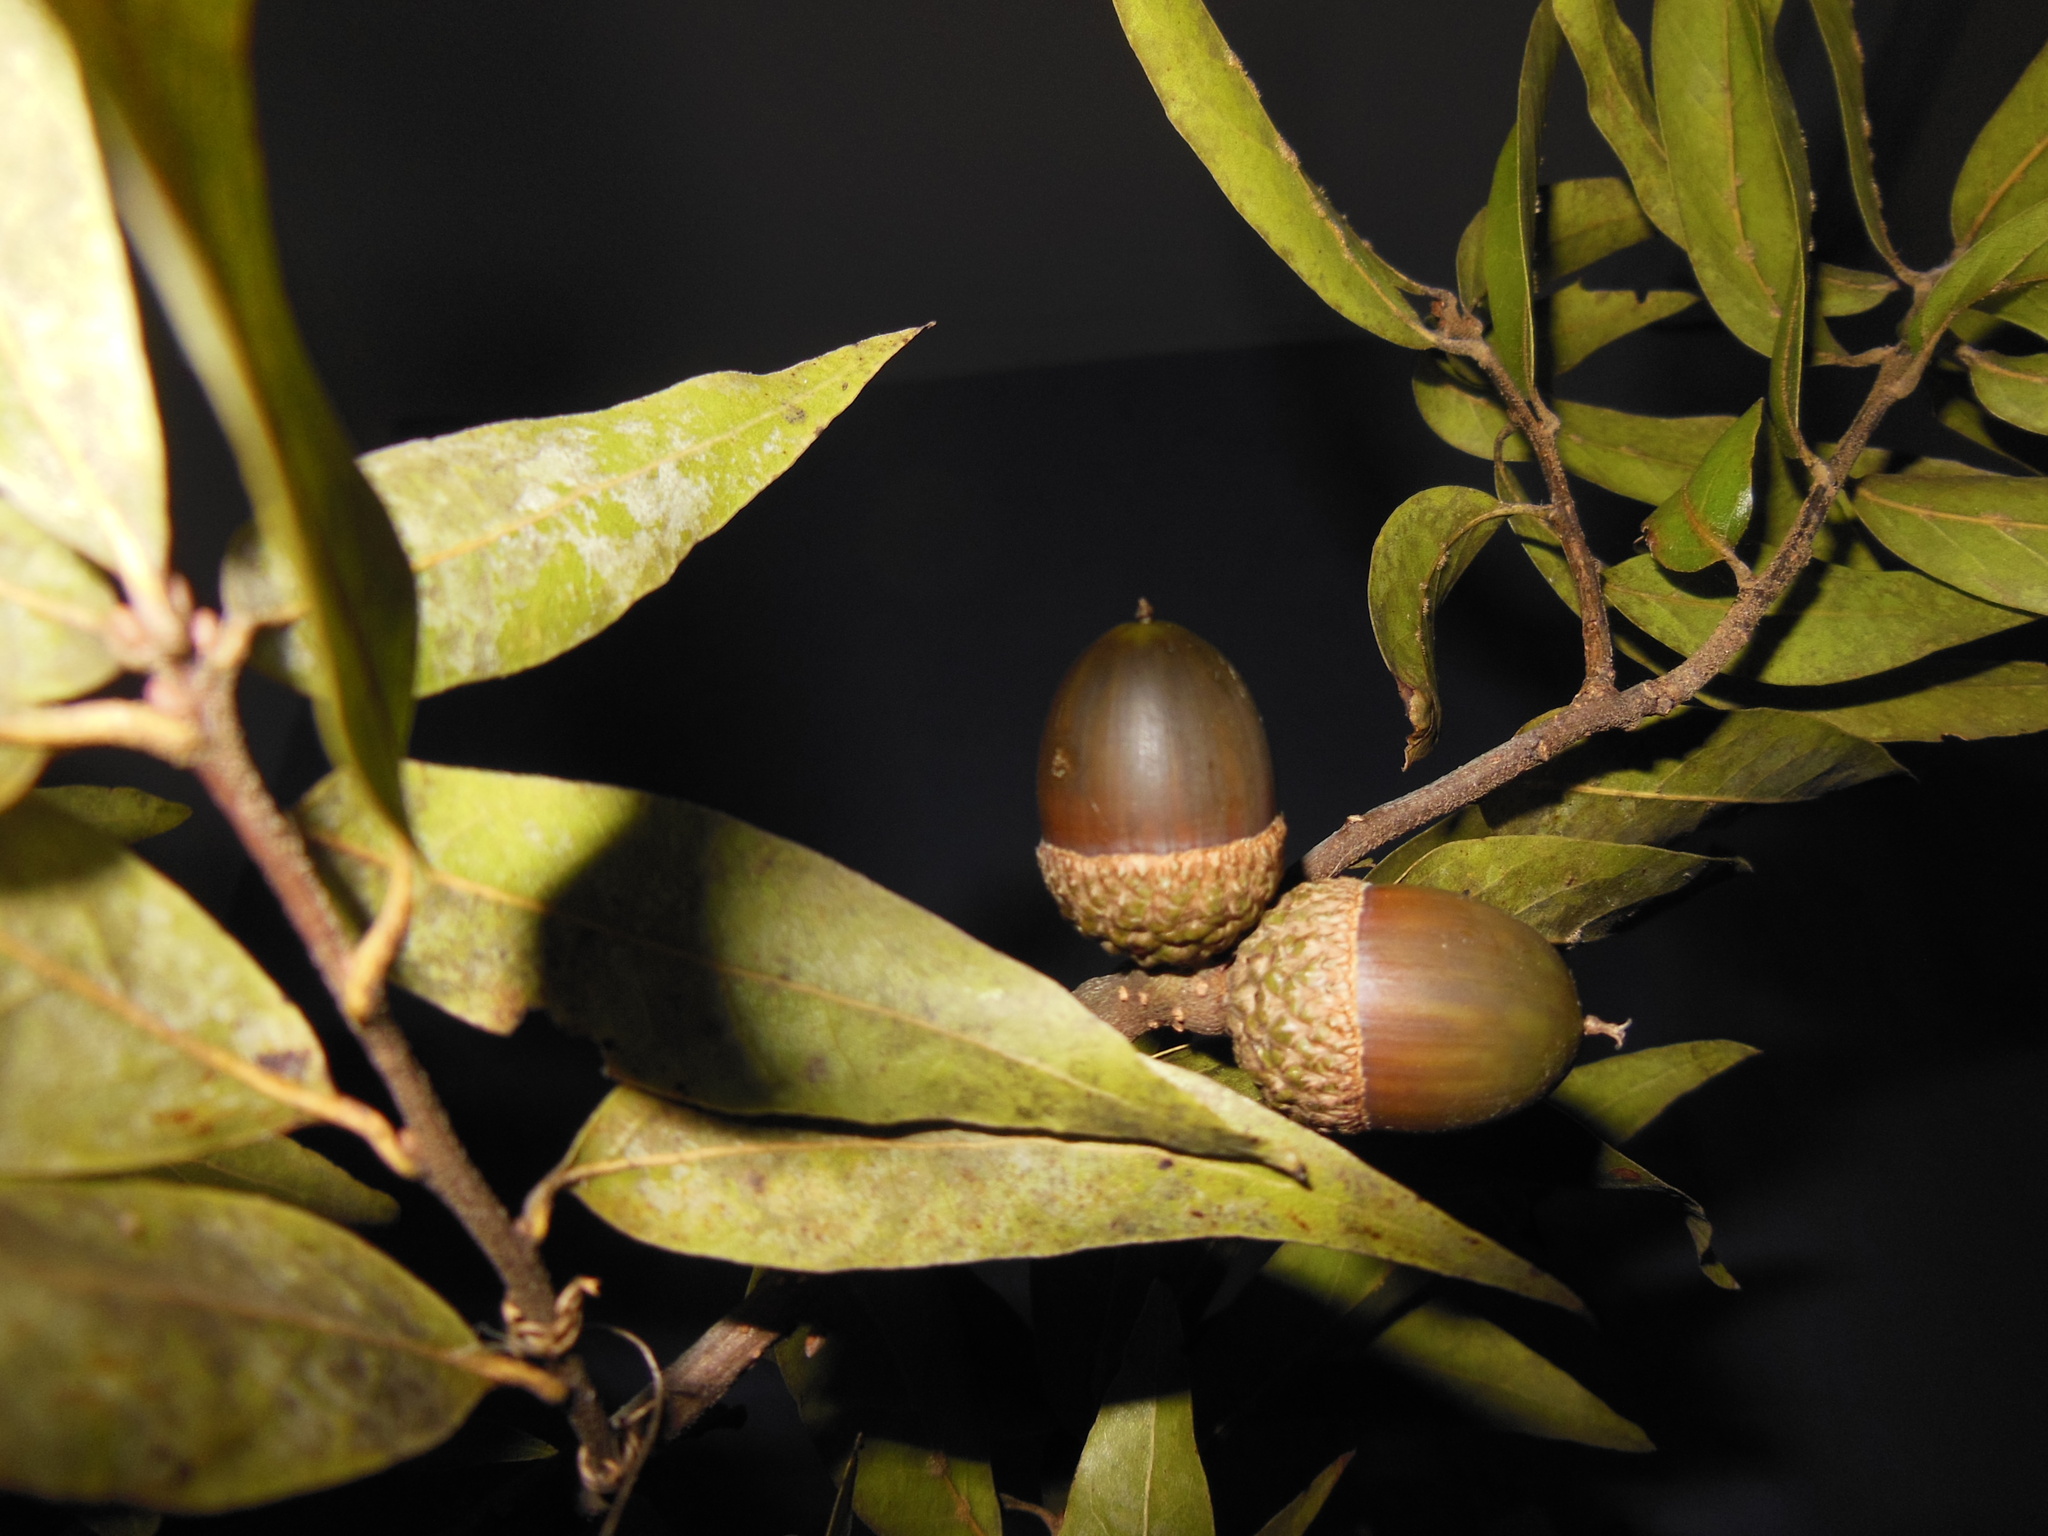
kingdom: Plantae
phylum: Tracheophyta
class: Magnoliopsida
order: Fagales
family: Fagaceae
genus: Quercus
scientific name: Quercus acatenangensis
